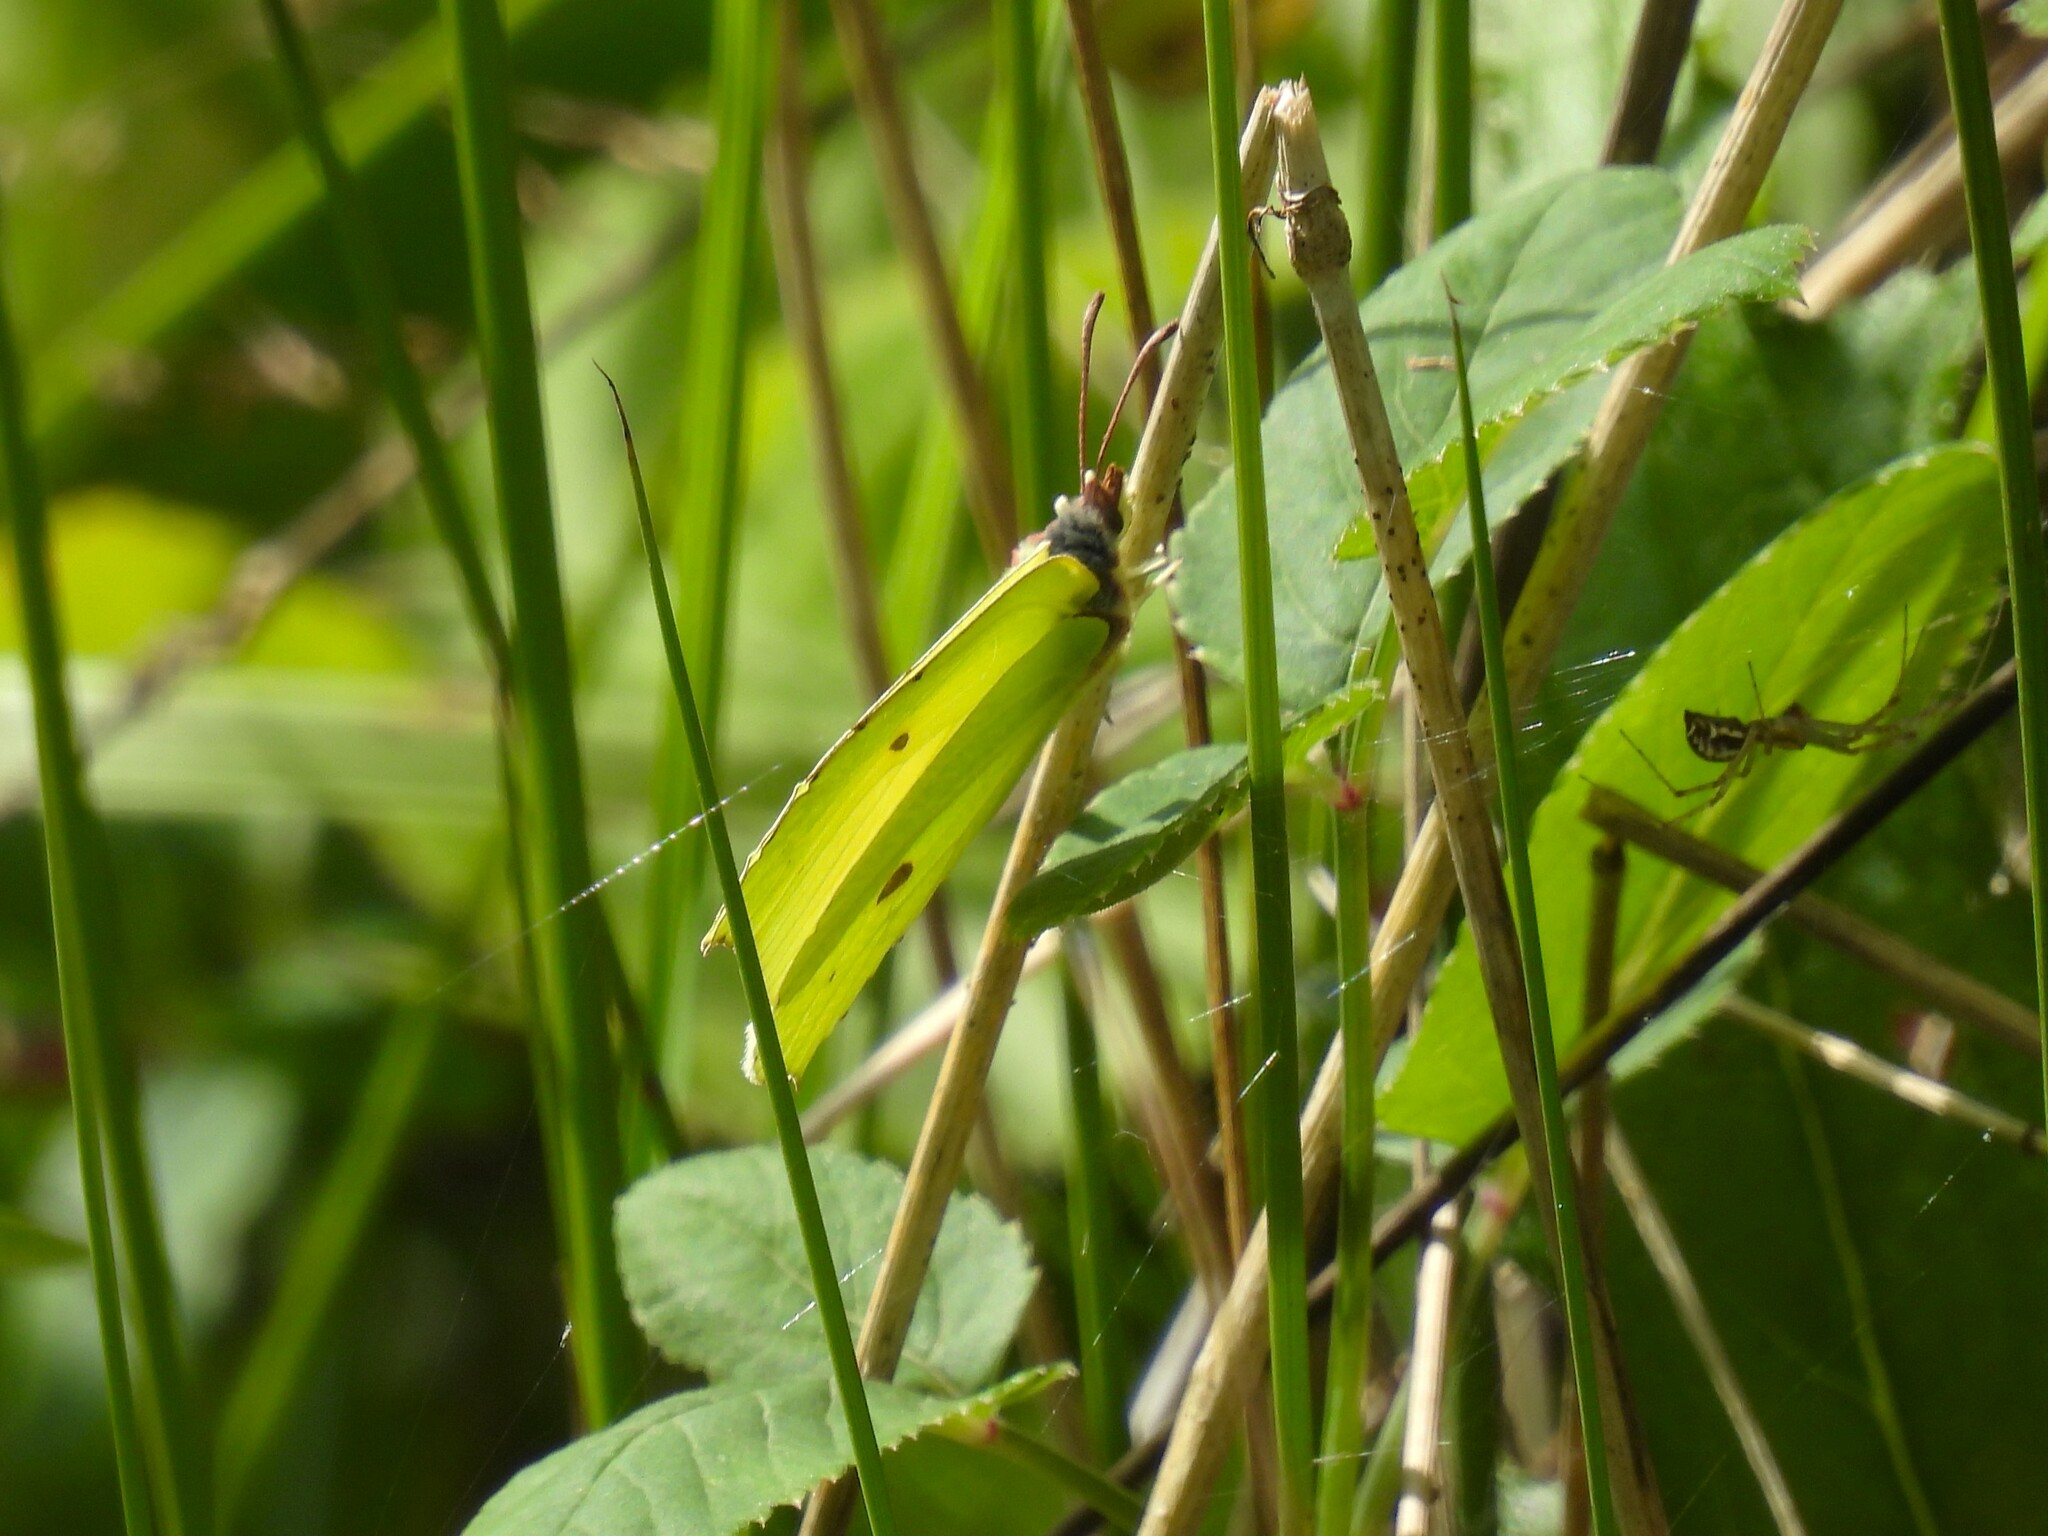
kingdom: Animalia
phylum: Arthropoda
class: Insecta
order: Lepidoptera
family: Pieridae
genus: Gonepteryx
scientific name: Gonepteryx rhamni
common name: Brimstone
